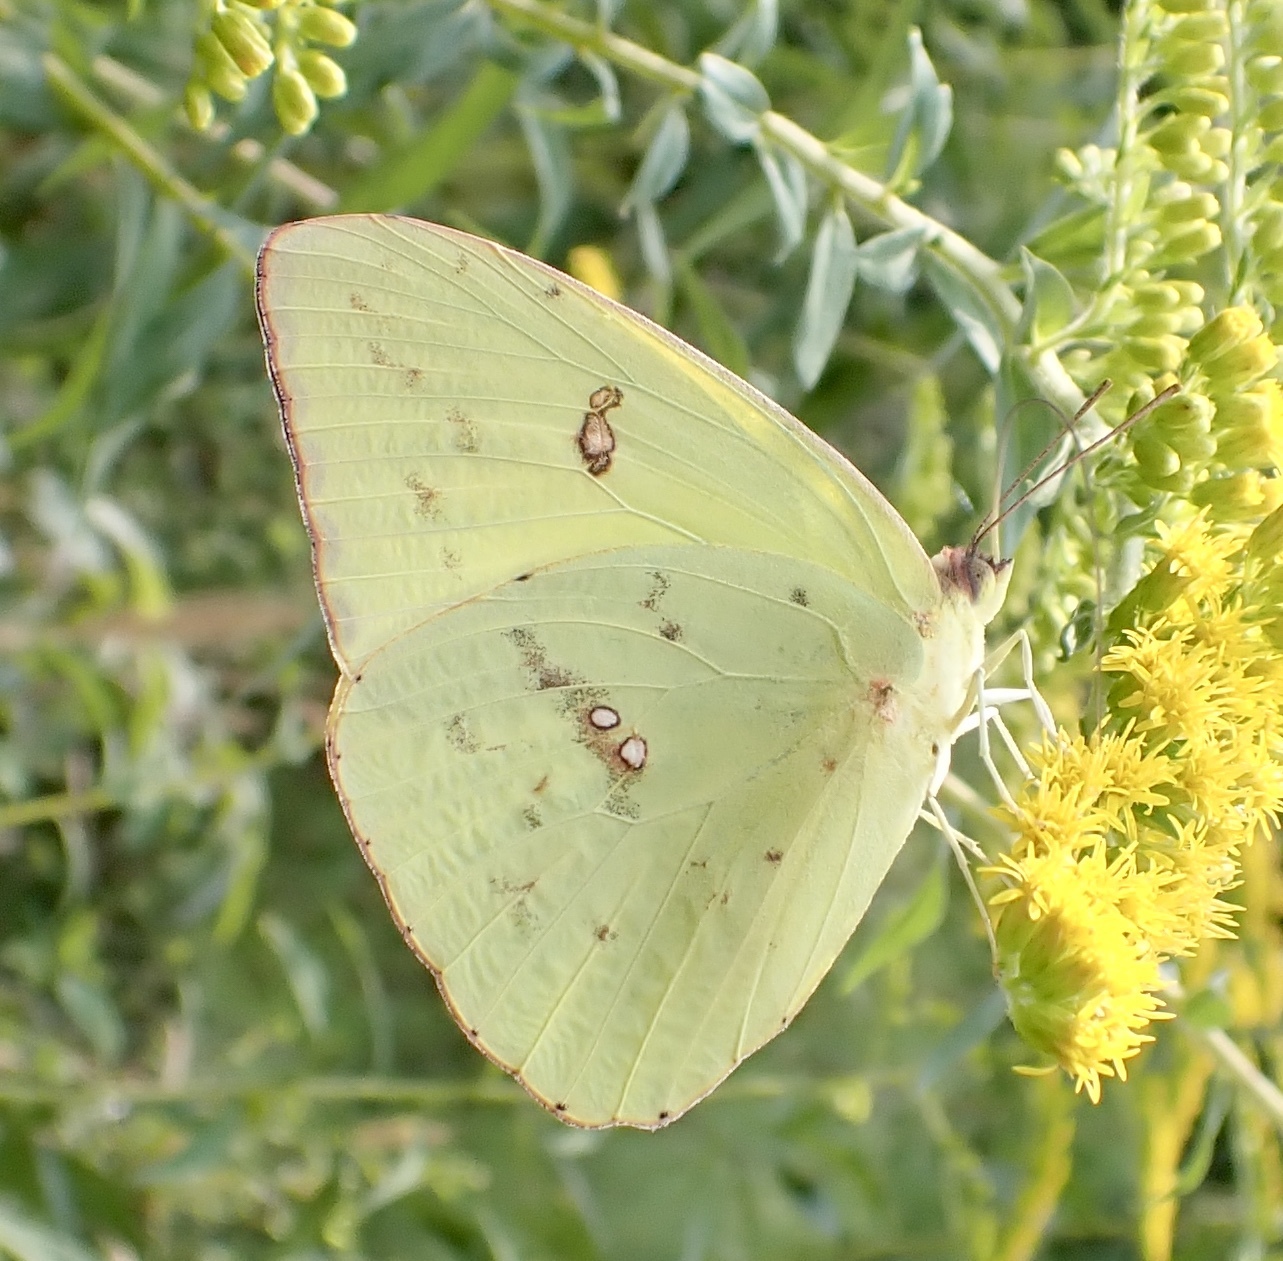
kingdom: Animalia
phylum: Arthropoda
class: Insecta
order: Lepidoptera
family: Pieridae
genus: Phoebis
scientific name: Phoebis sennae
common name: Cloudless sulphur
